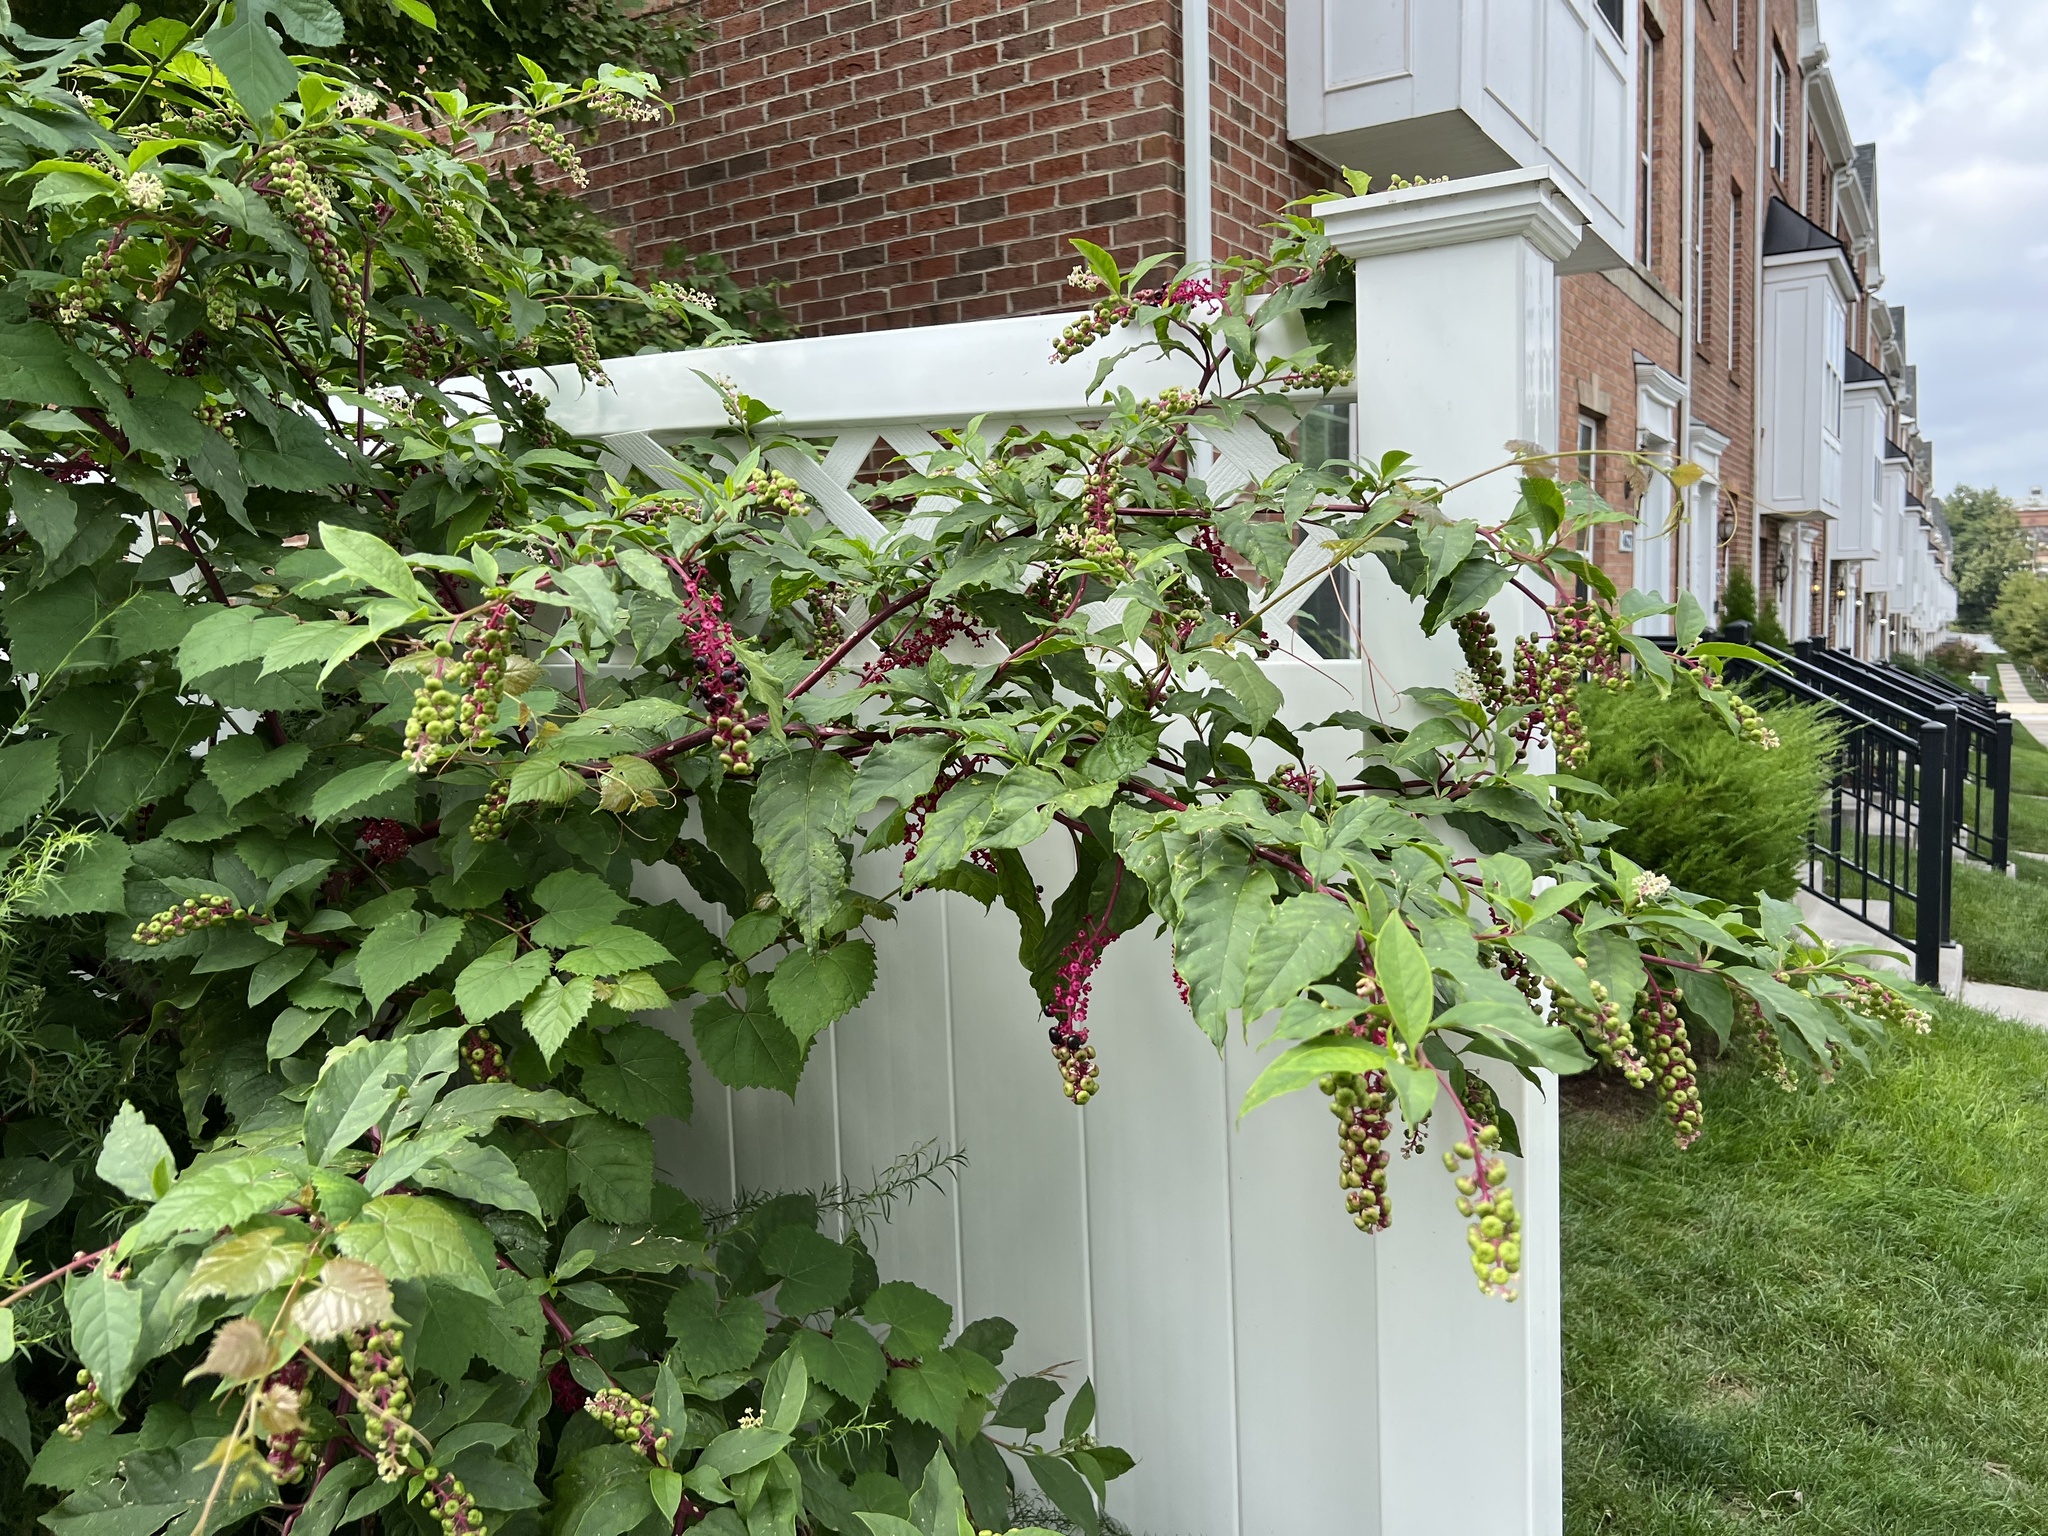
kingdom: Plantae
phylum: Tracheophyta
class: Magnoliopsida
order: Caryophyllales
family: Phytolaccaceae
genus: Phytolacca
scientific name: Phytolacca americana
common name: American pokeweed
